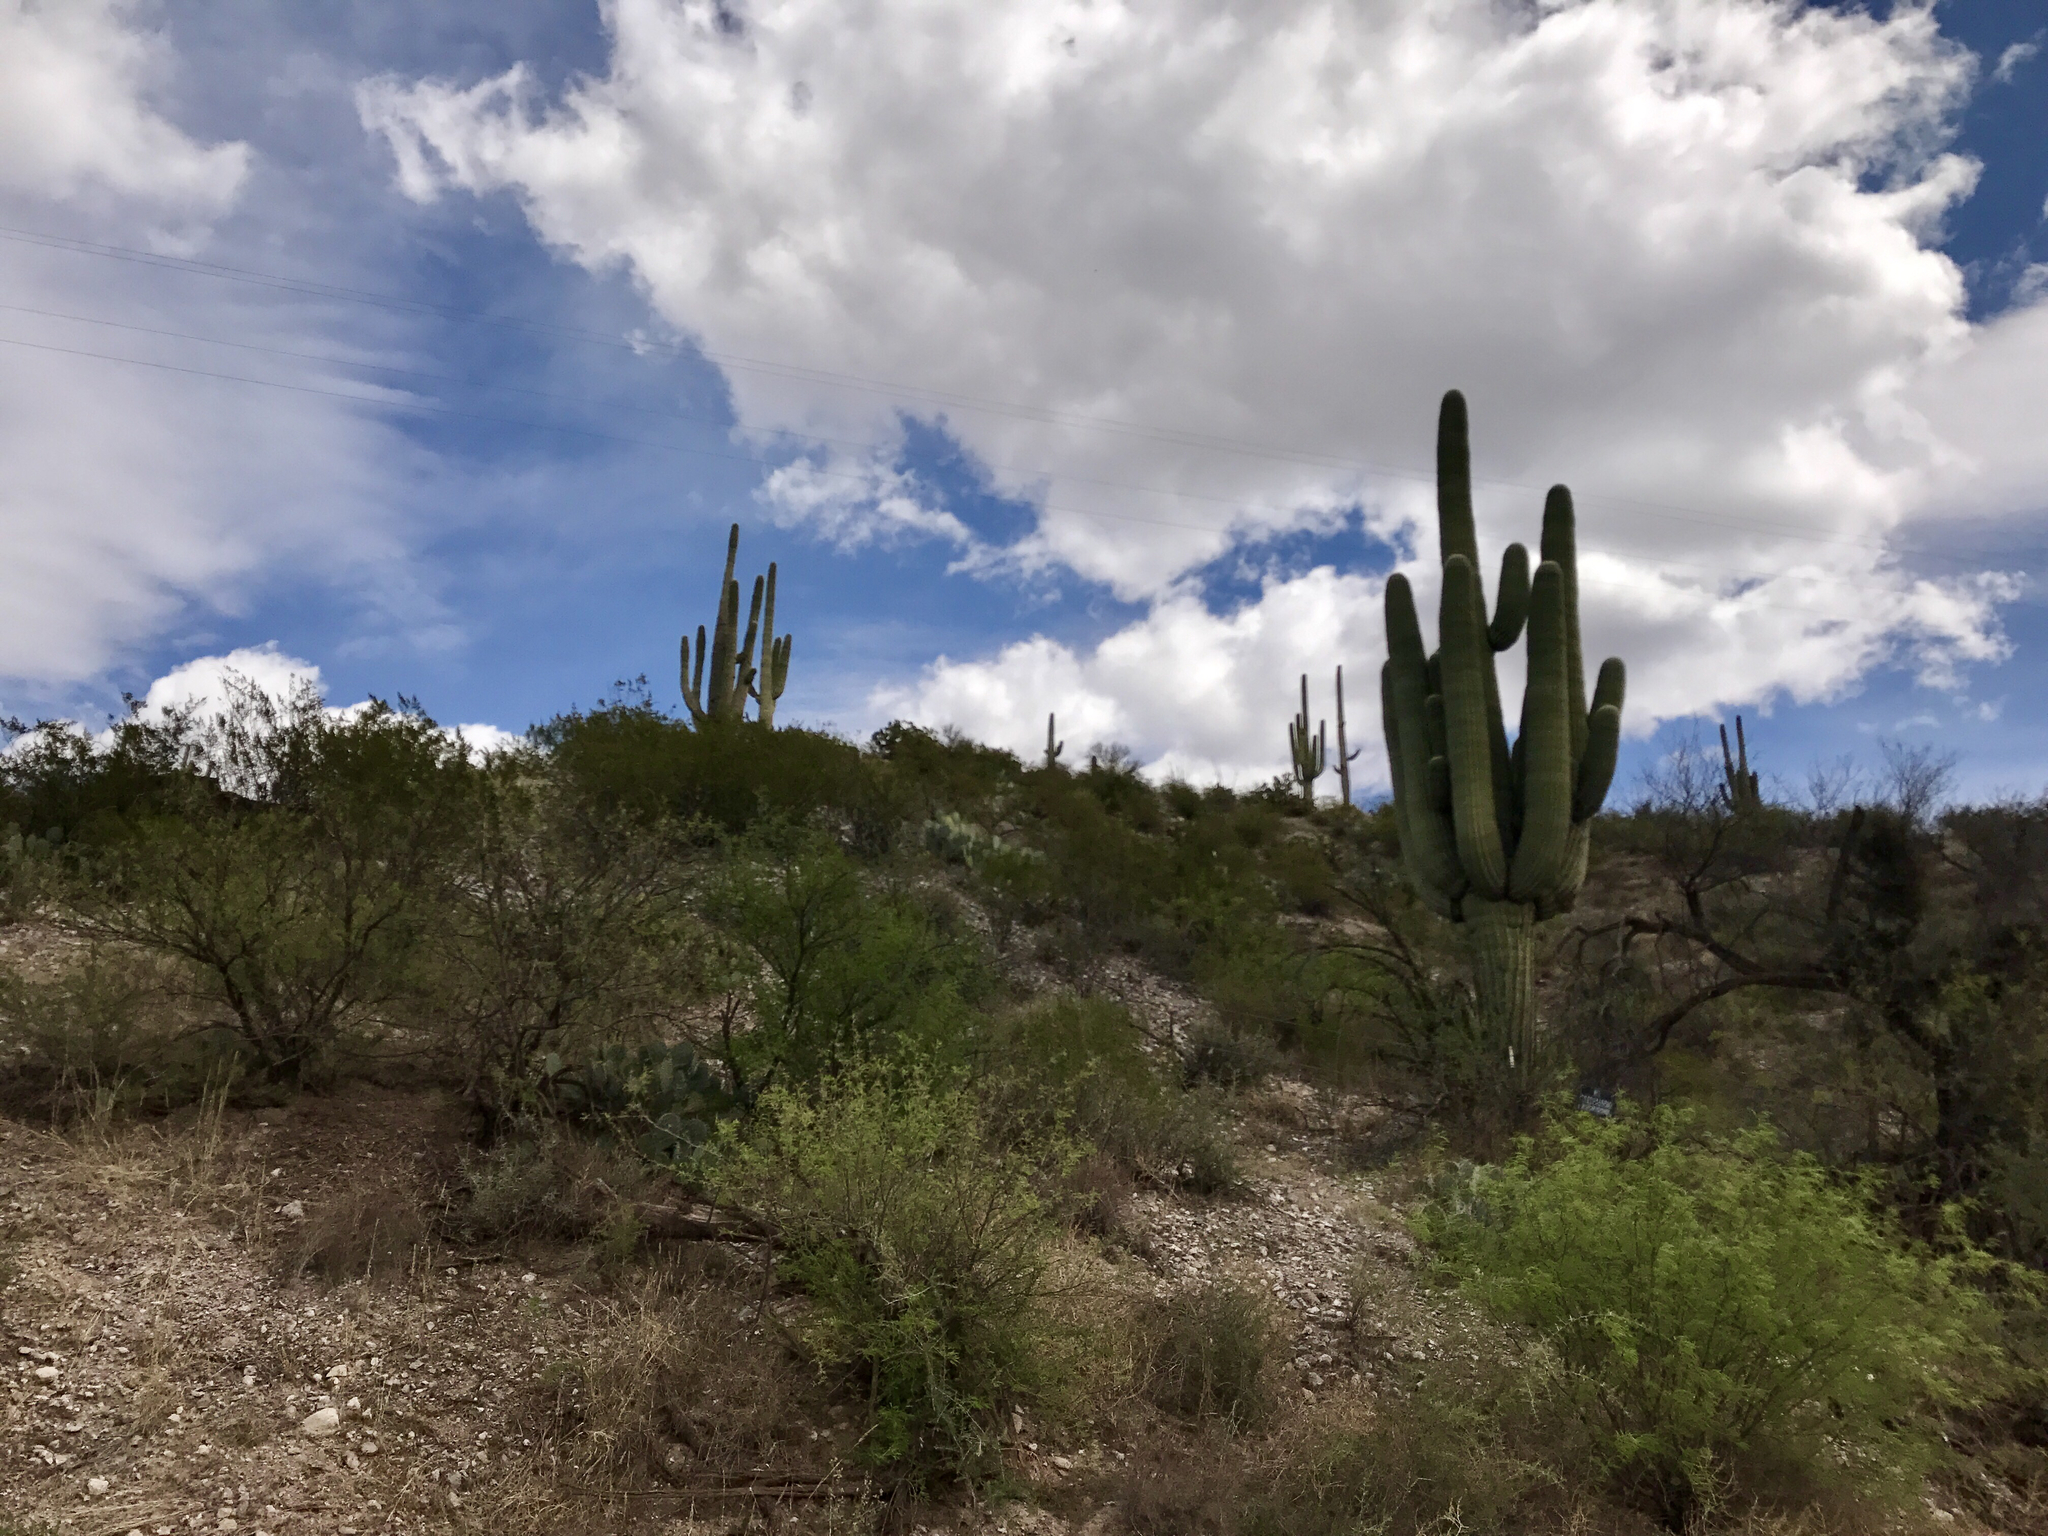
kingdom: Plantae
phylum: Tracheophyta
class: Magnoliopsida
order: Caryophyllales
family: Cactaceae
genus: Carnegiea
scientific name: Carnegiea gigantea
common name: Saguaro
